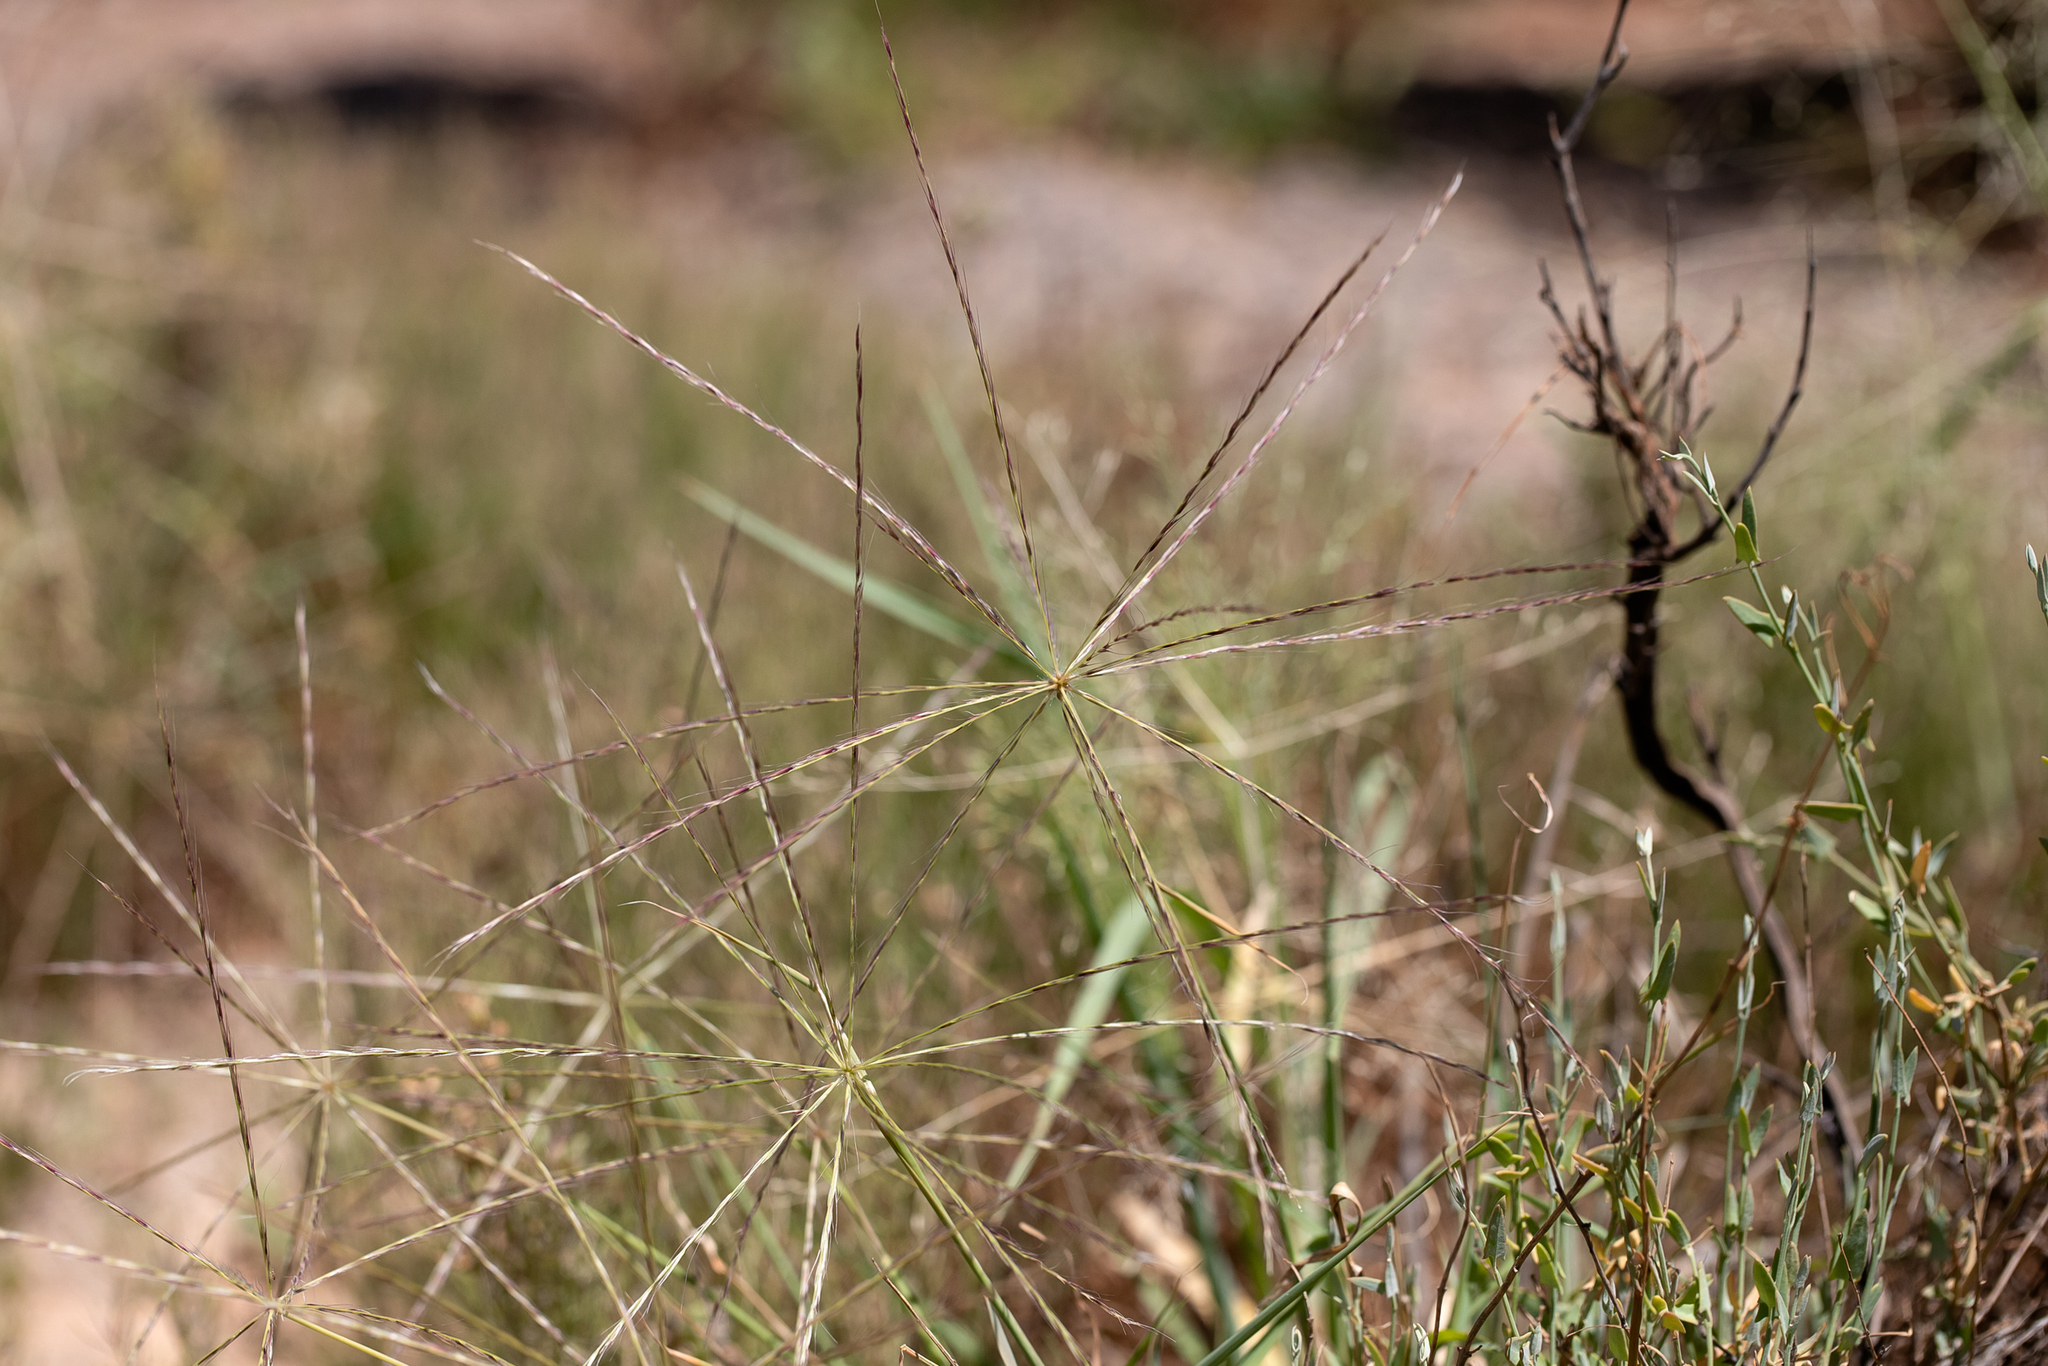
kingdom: Plantae
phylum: Tracheophyta
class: Liliopsida
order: Poales
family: Poaceae
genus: Enteropogon
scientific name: Enteropogon acicularis
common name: Curly windmill grass
